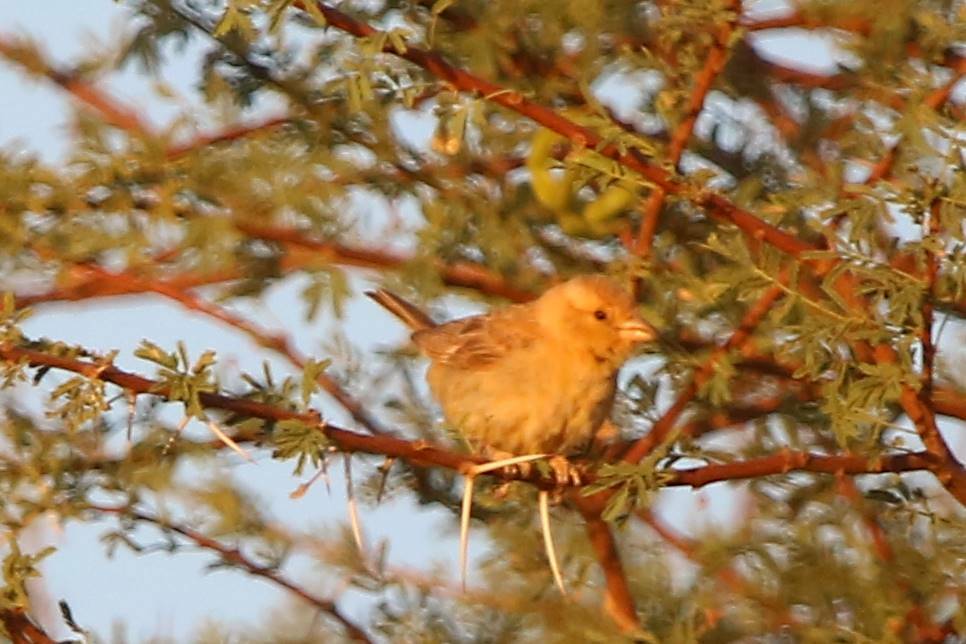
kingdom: Animalia
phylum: Chordata
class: Aves
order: Passeriformes
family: Passeridae
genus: Passer
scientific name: Passer luteus
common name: Sudan golden sparrow
